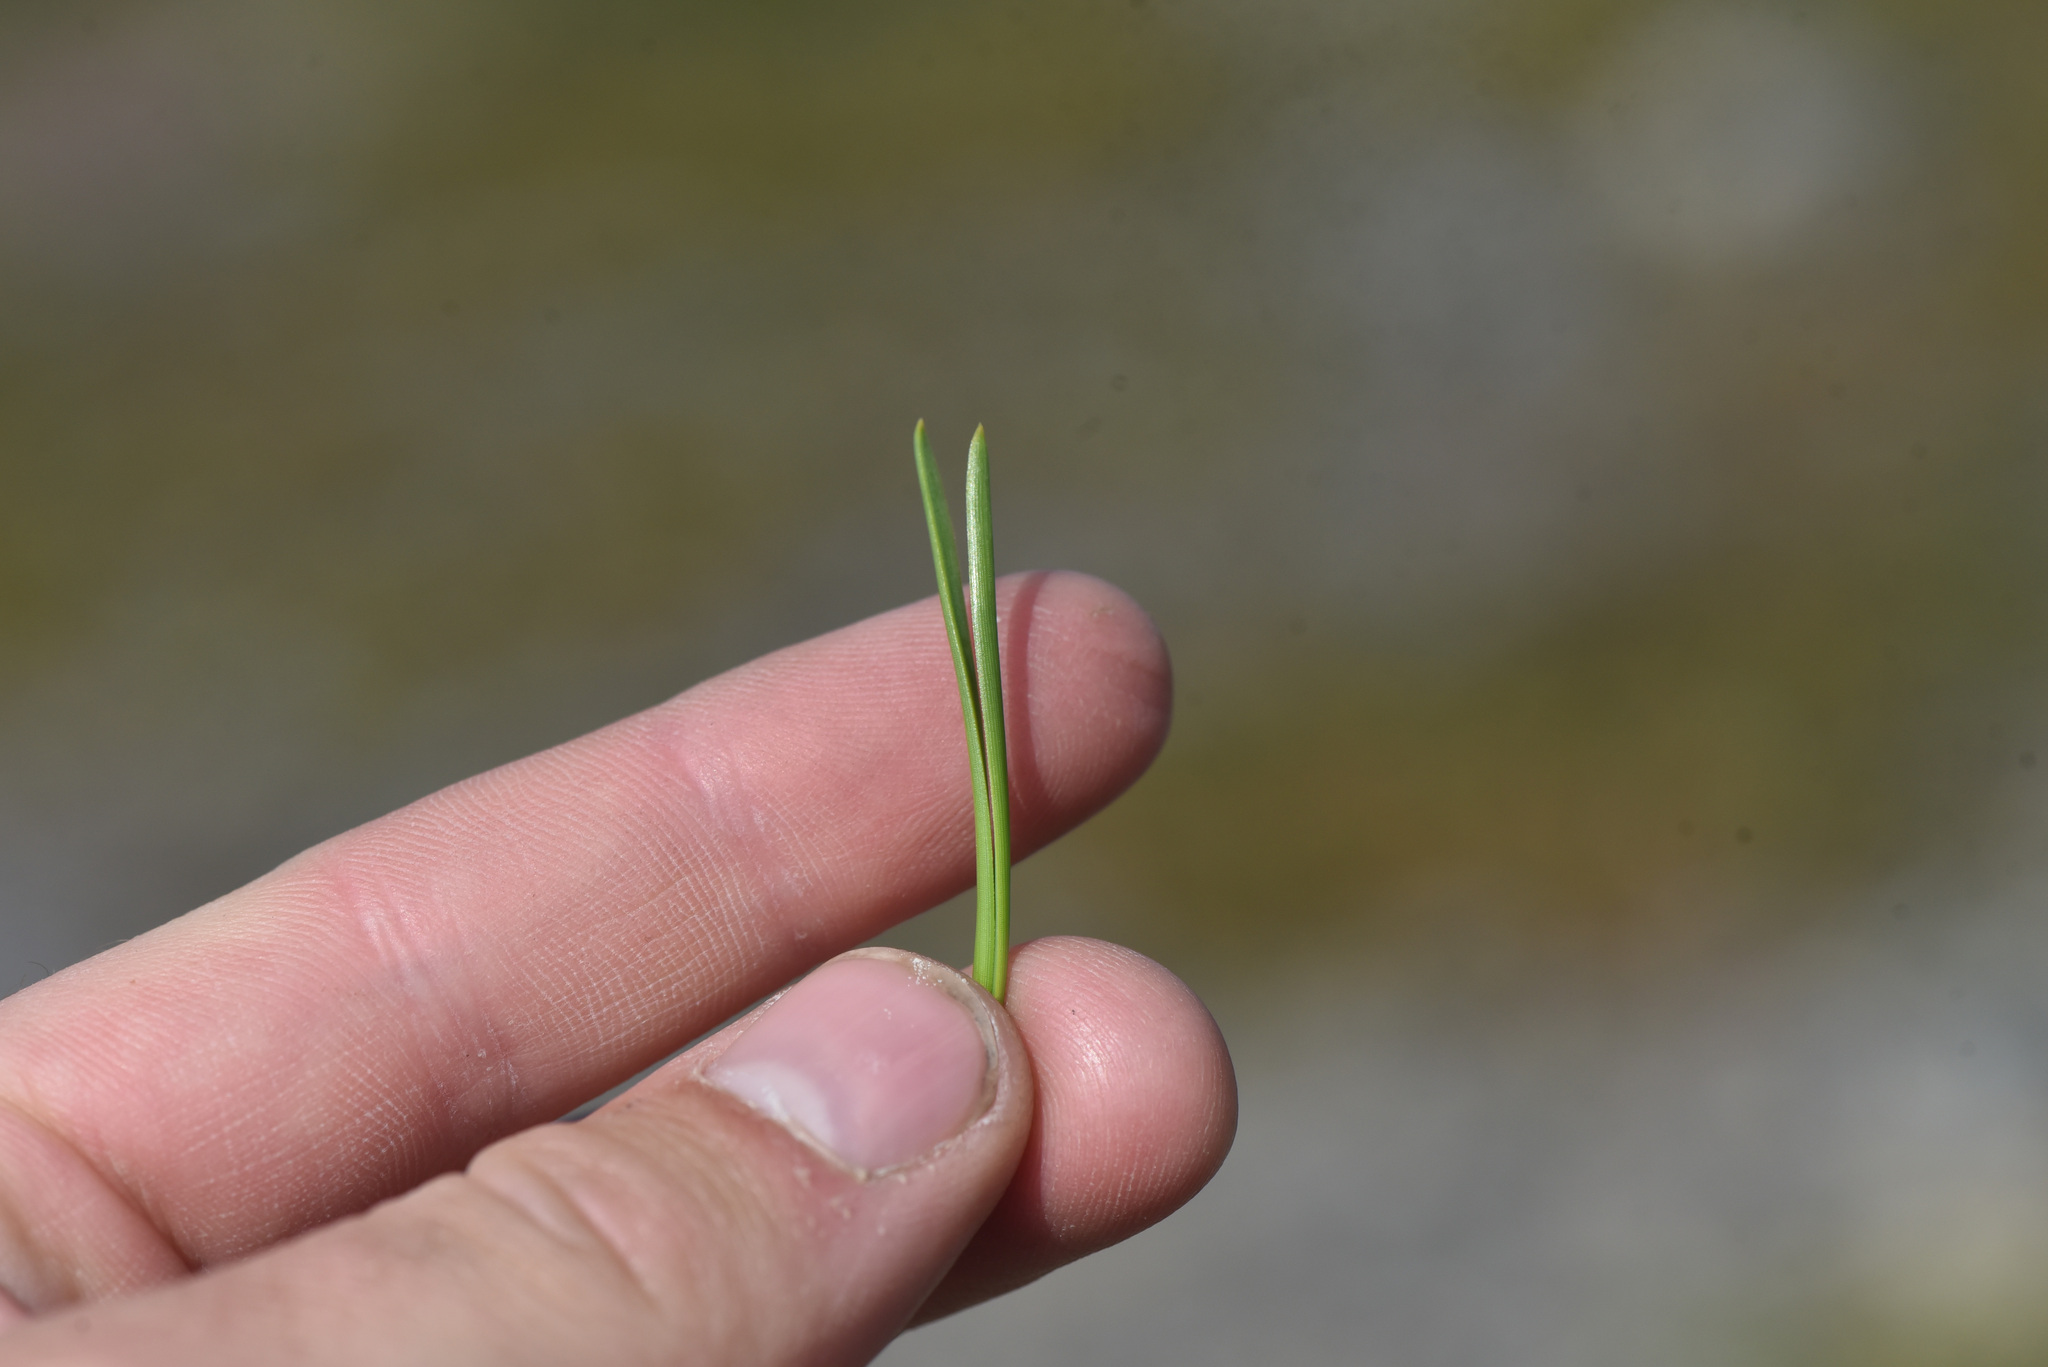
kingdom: Plantae
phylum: Tracheophyta
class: Pinopsida
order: Pinales
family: Pinaceae
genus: Pinus
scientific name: Pinus contorta
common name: Lodgepole pine
